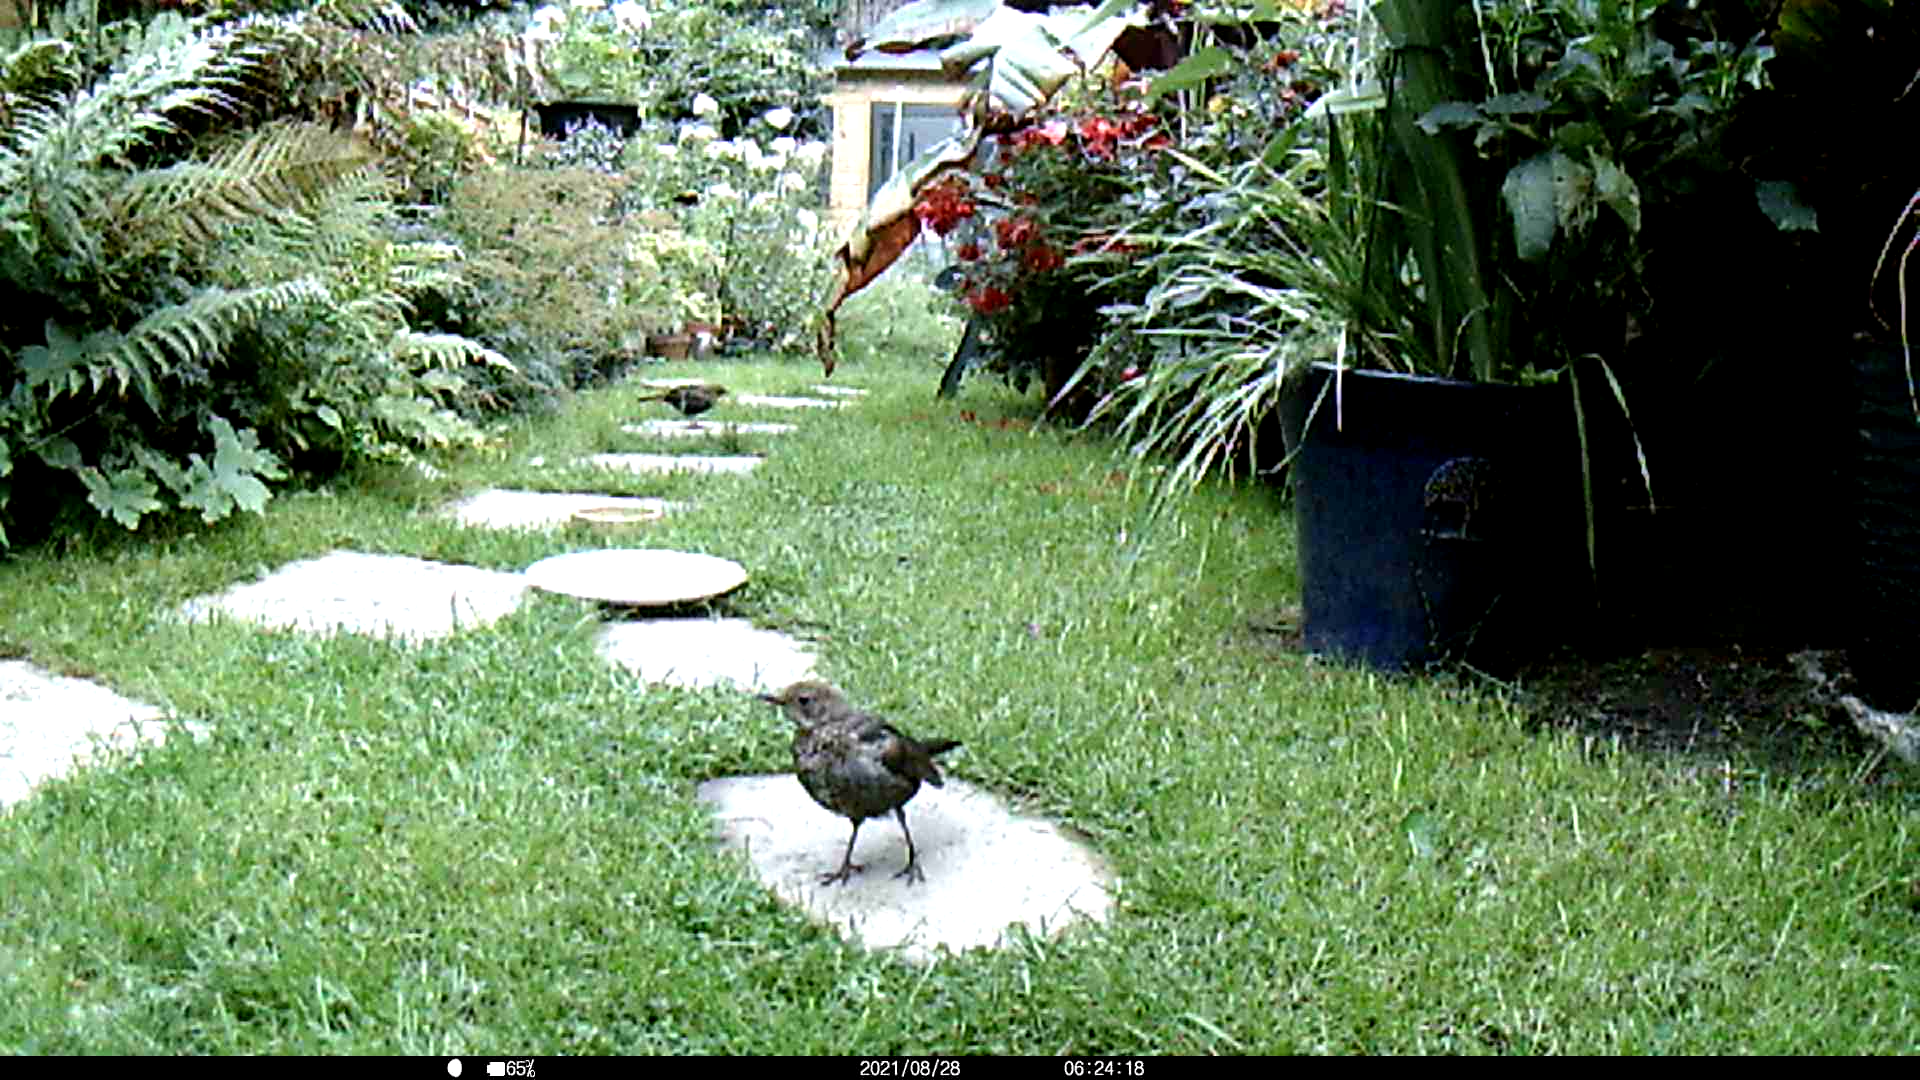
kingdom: Animalia
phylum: Chordata
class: Aves
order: Passeriformes
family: Sturnidae
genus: Sturnus
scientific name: Sturnus vulgaris
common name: Common starling
